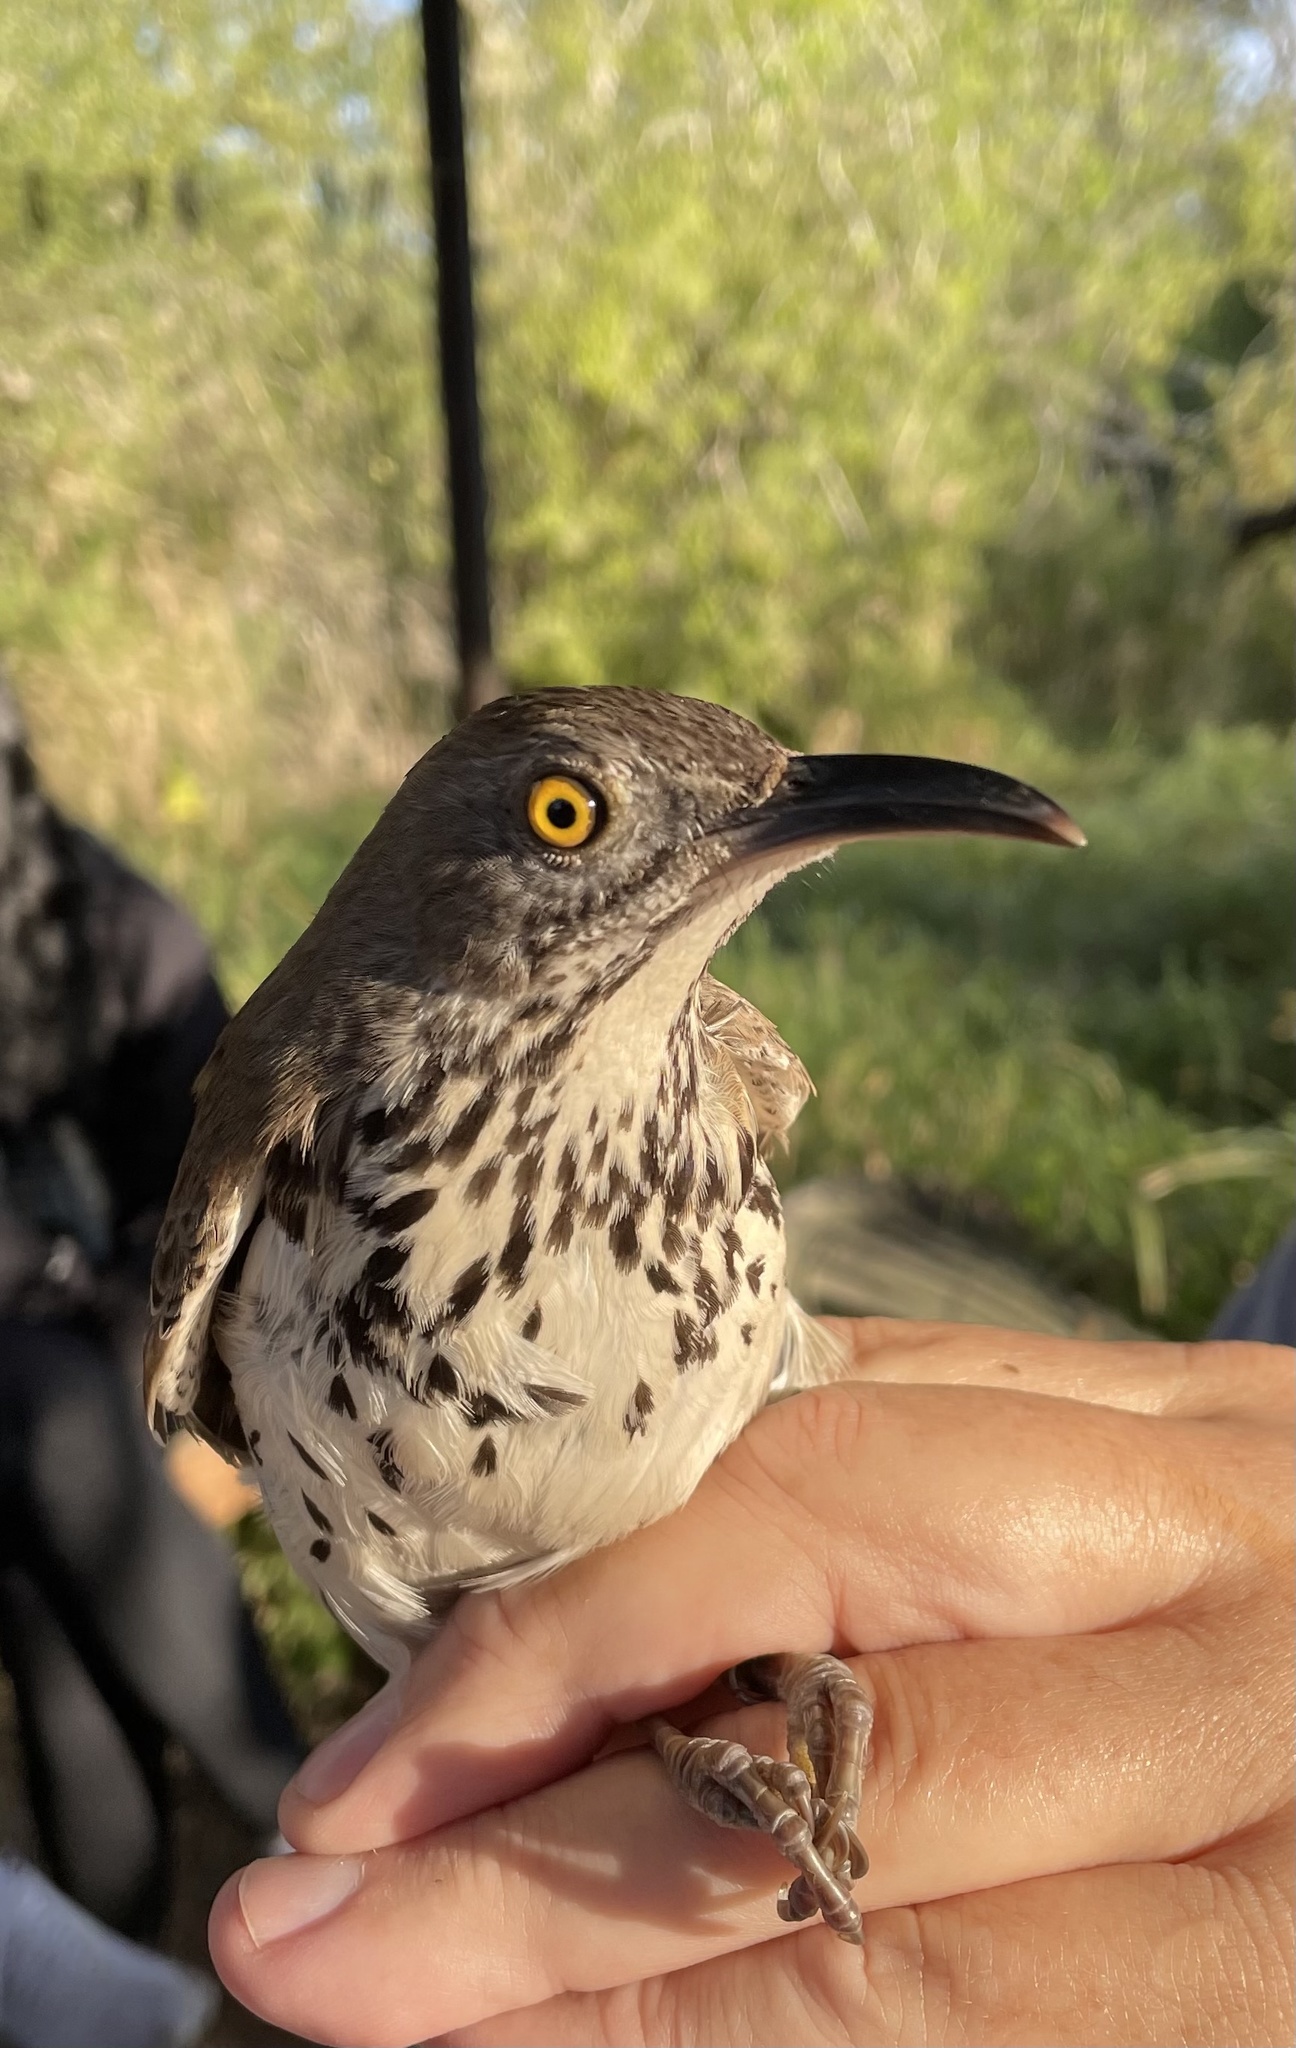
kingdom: Animalia
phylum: Chordata
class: Aves
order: Passeriformes
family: Mimidae
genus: Toxostoma
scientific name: Toxostoma longirostre
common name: Long-billed thrasher
